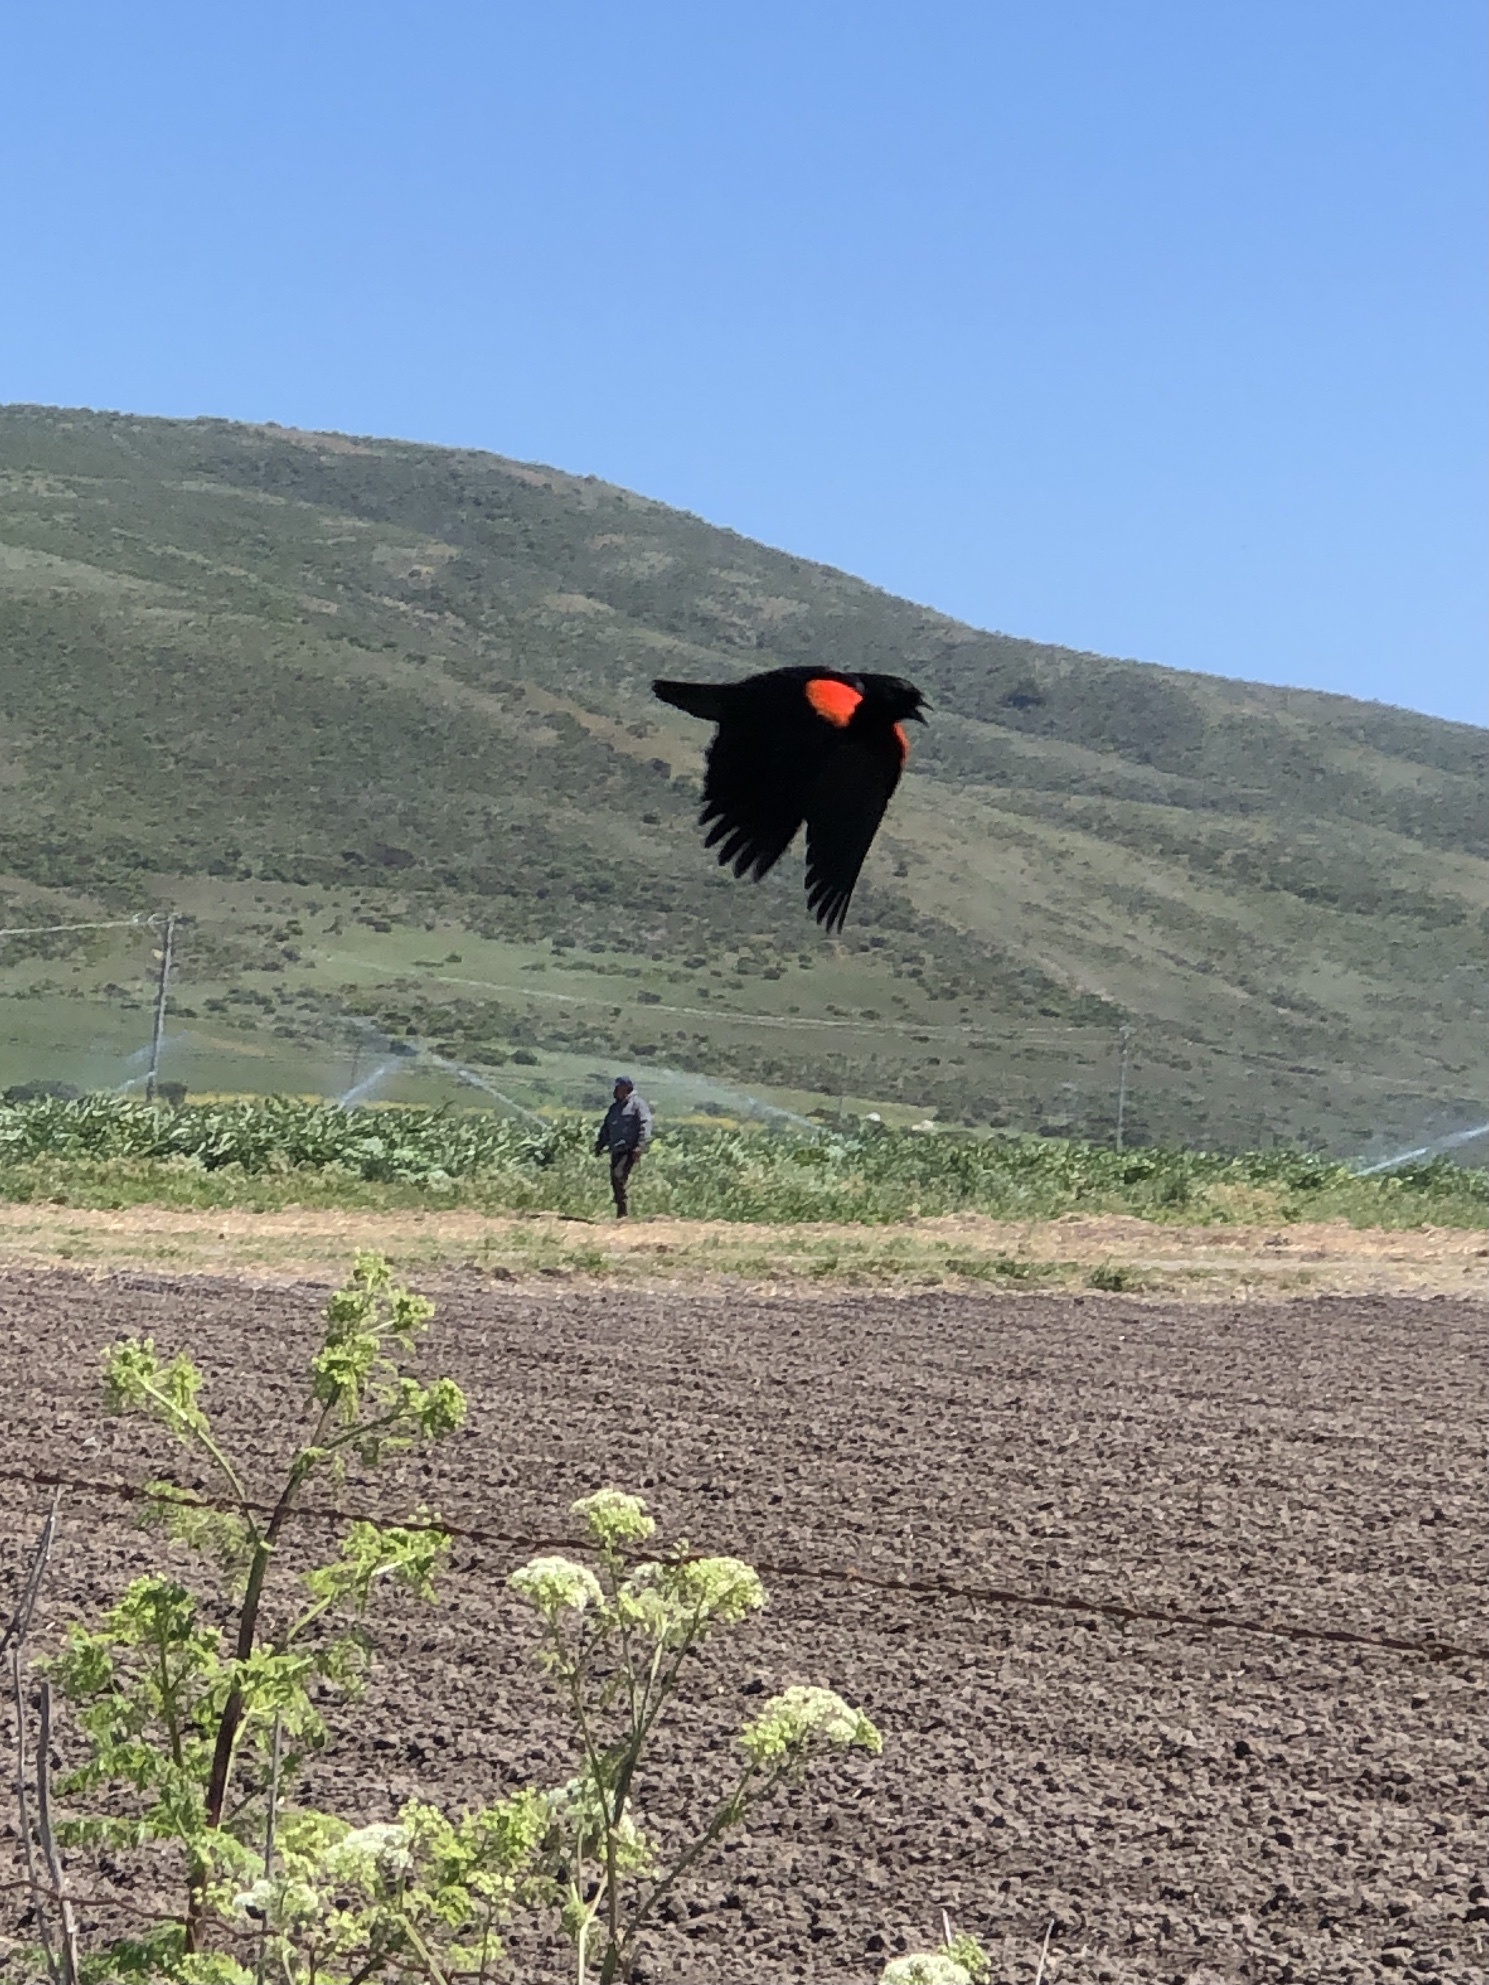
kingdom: Animalia
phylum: Chordata
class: Aves
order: Passeriformes
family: Icteridae
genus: Agelaius
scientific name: Agelaius phoeniceus
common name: Red-winged blackbird
